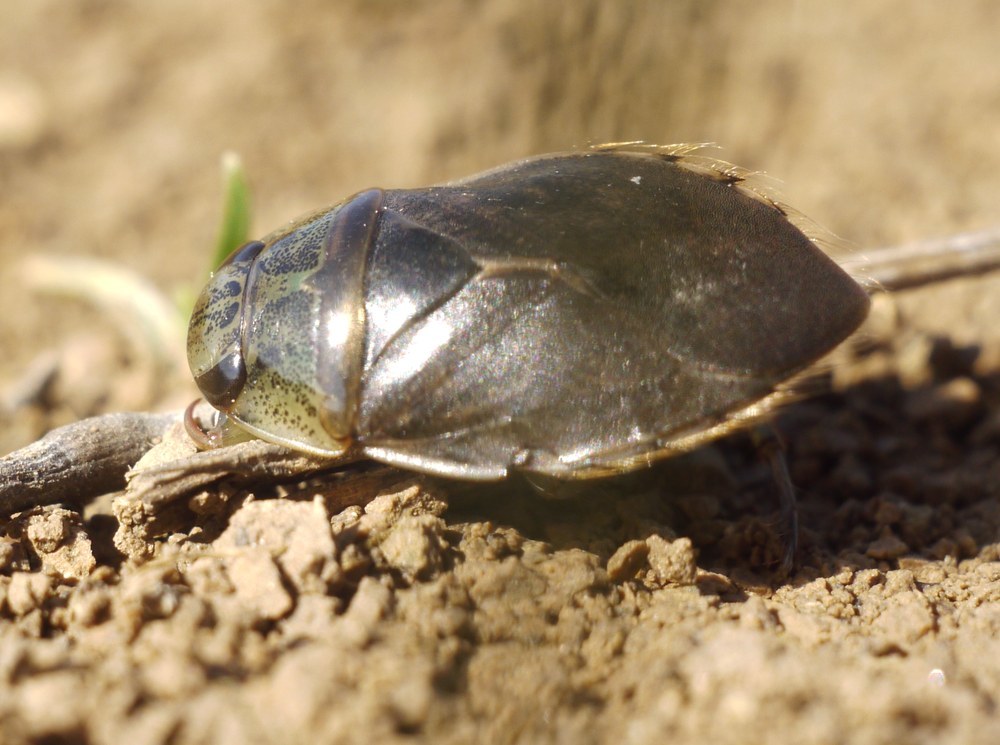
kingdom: Animalia
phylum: Arthropoda
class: Insecta
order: Hemiptera
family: Naucoridae
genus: Ilyocoris
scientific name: Ilyocoris cimicoides
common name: Saucer bugs
